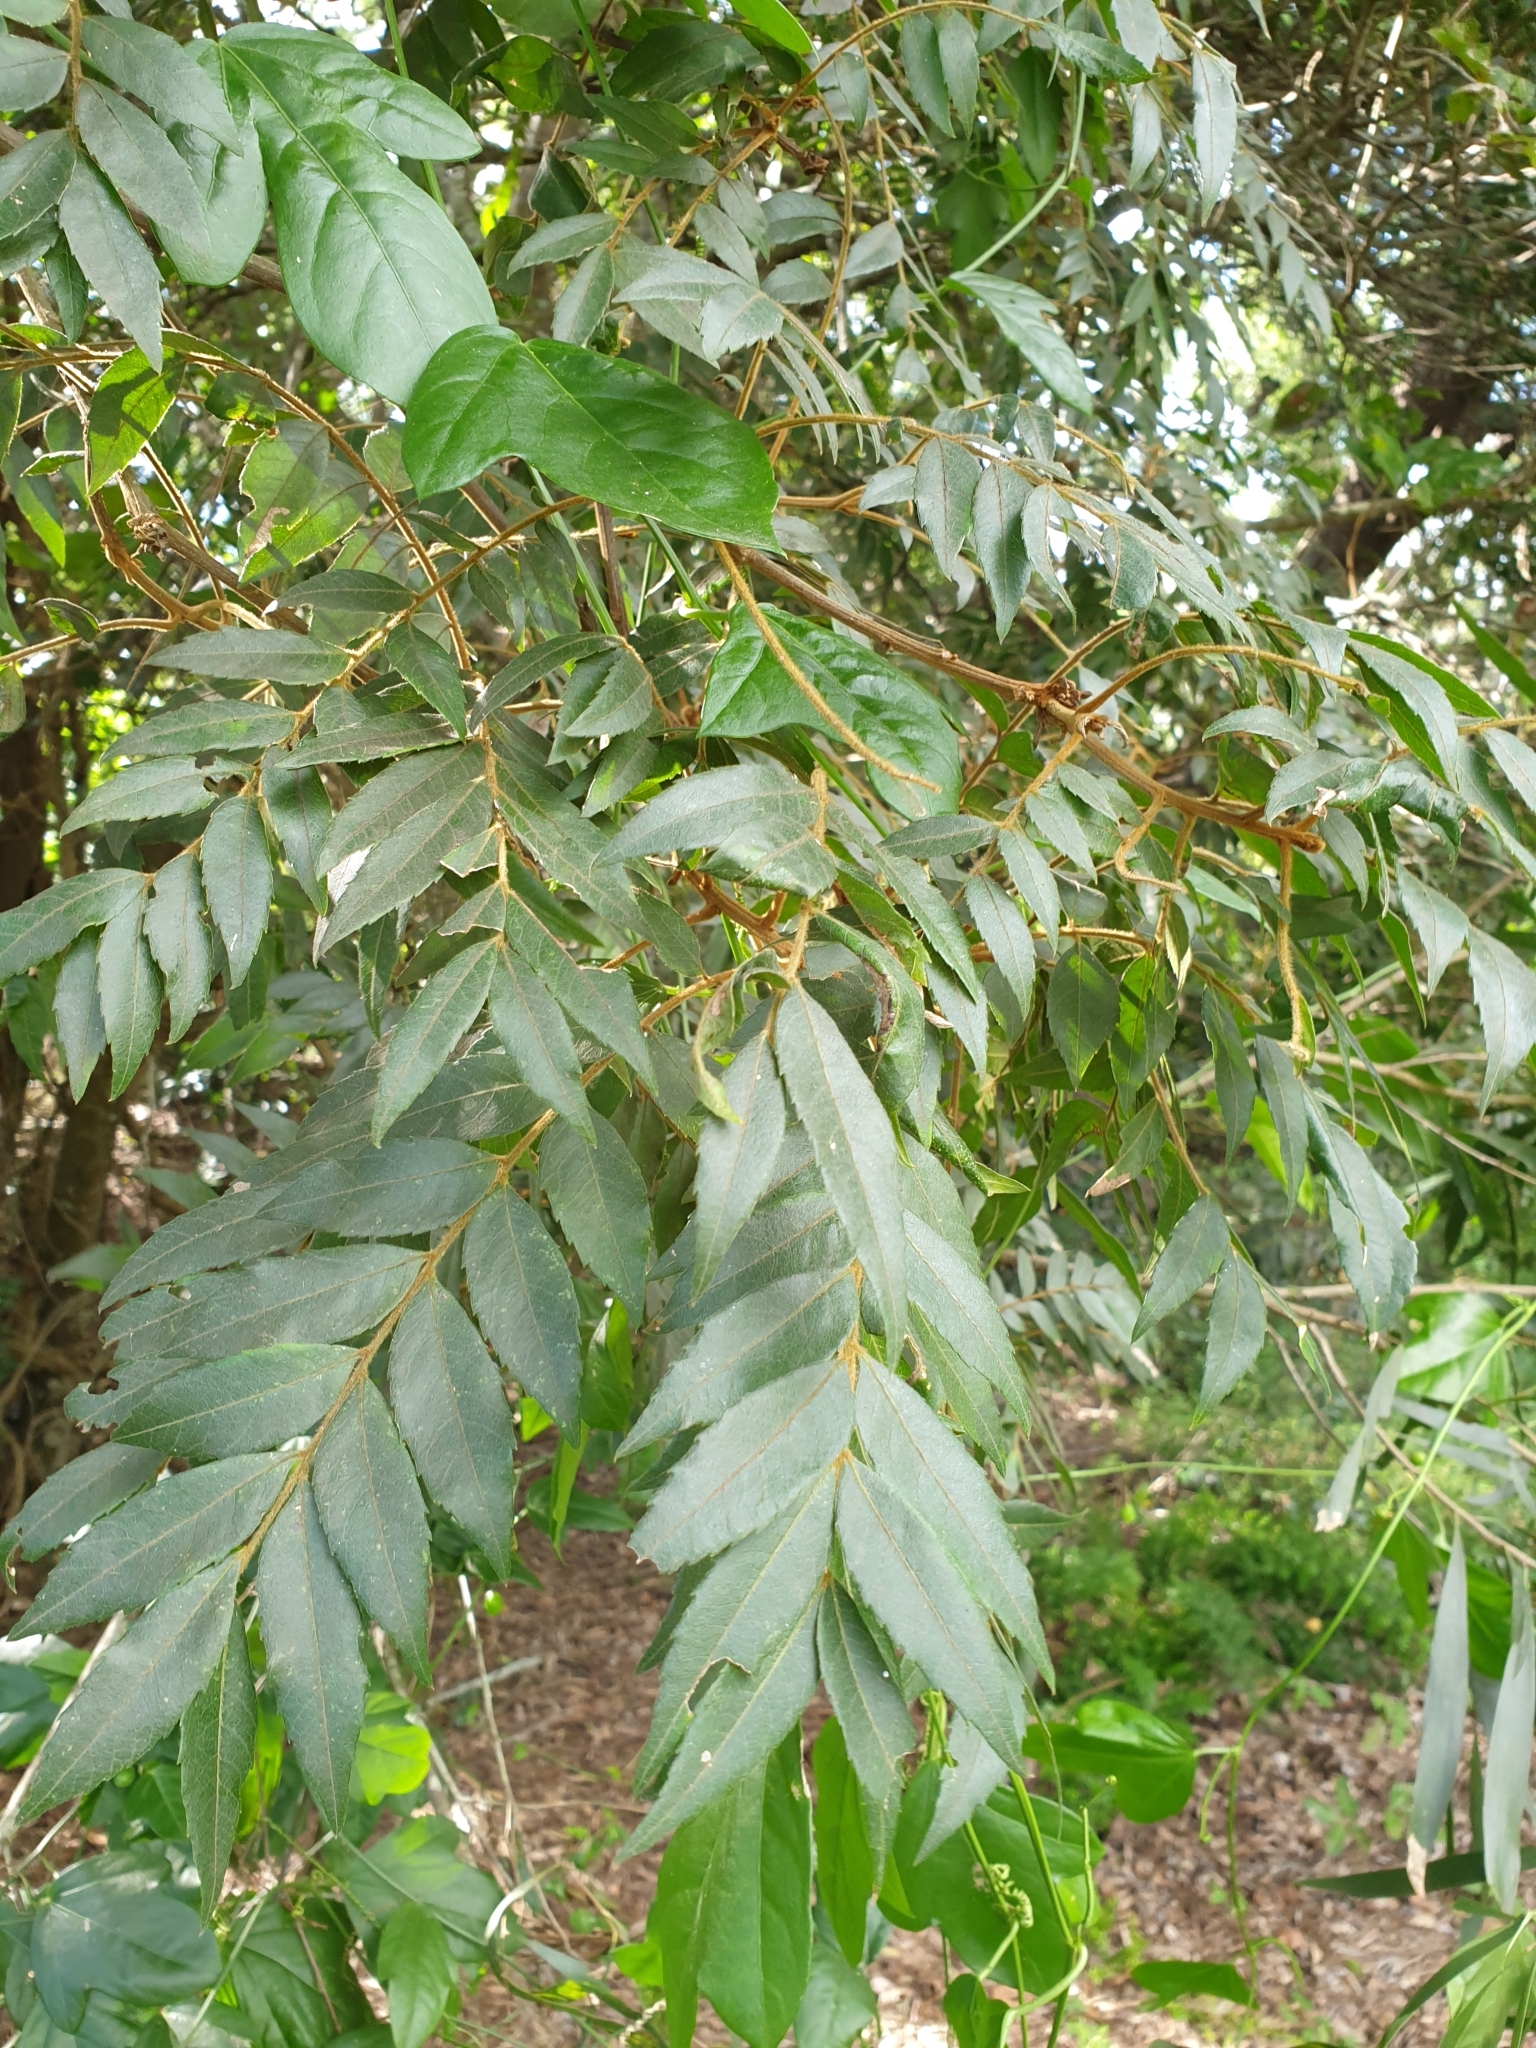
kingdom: Plantae
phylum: Tracheophyta
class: Magnoliopsida
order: Sapindales
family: Sapindaceae
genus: Jagera
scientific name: Jagera pseudorhus
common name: Fern-leaf-tamarind
